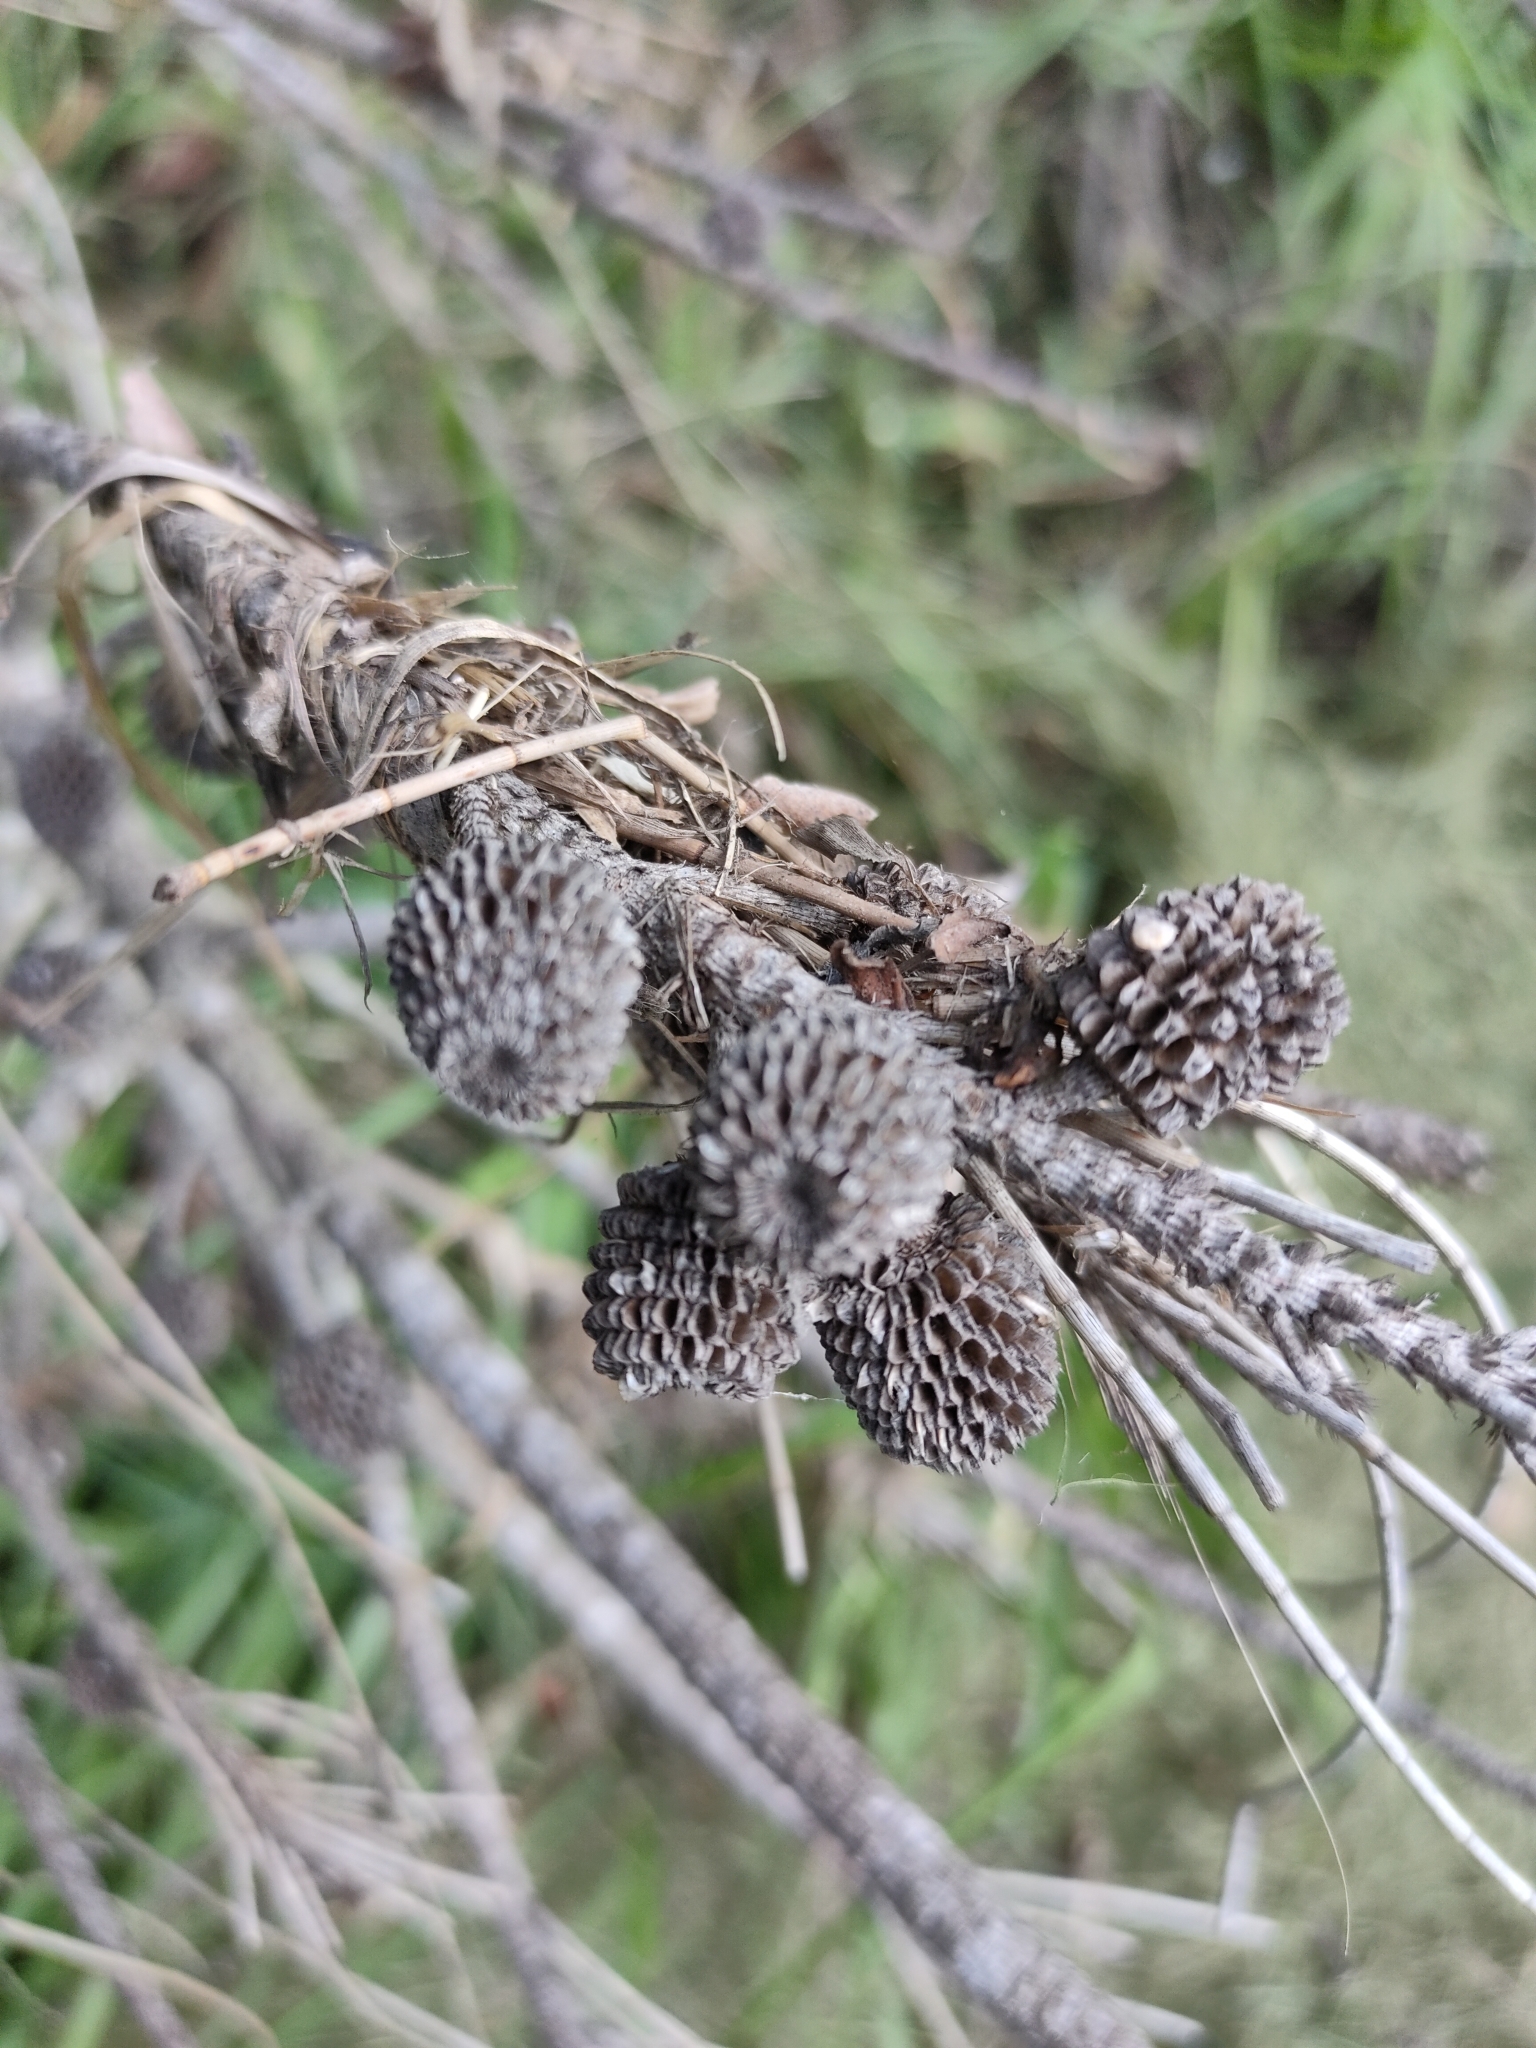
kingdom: Plantae
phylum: Tracheophyta
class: Magnoliopsida
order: Fagales
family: Casuarinaceae
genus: Casuarina
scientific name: Casuarina glauca
